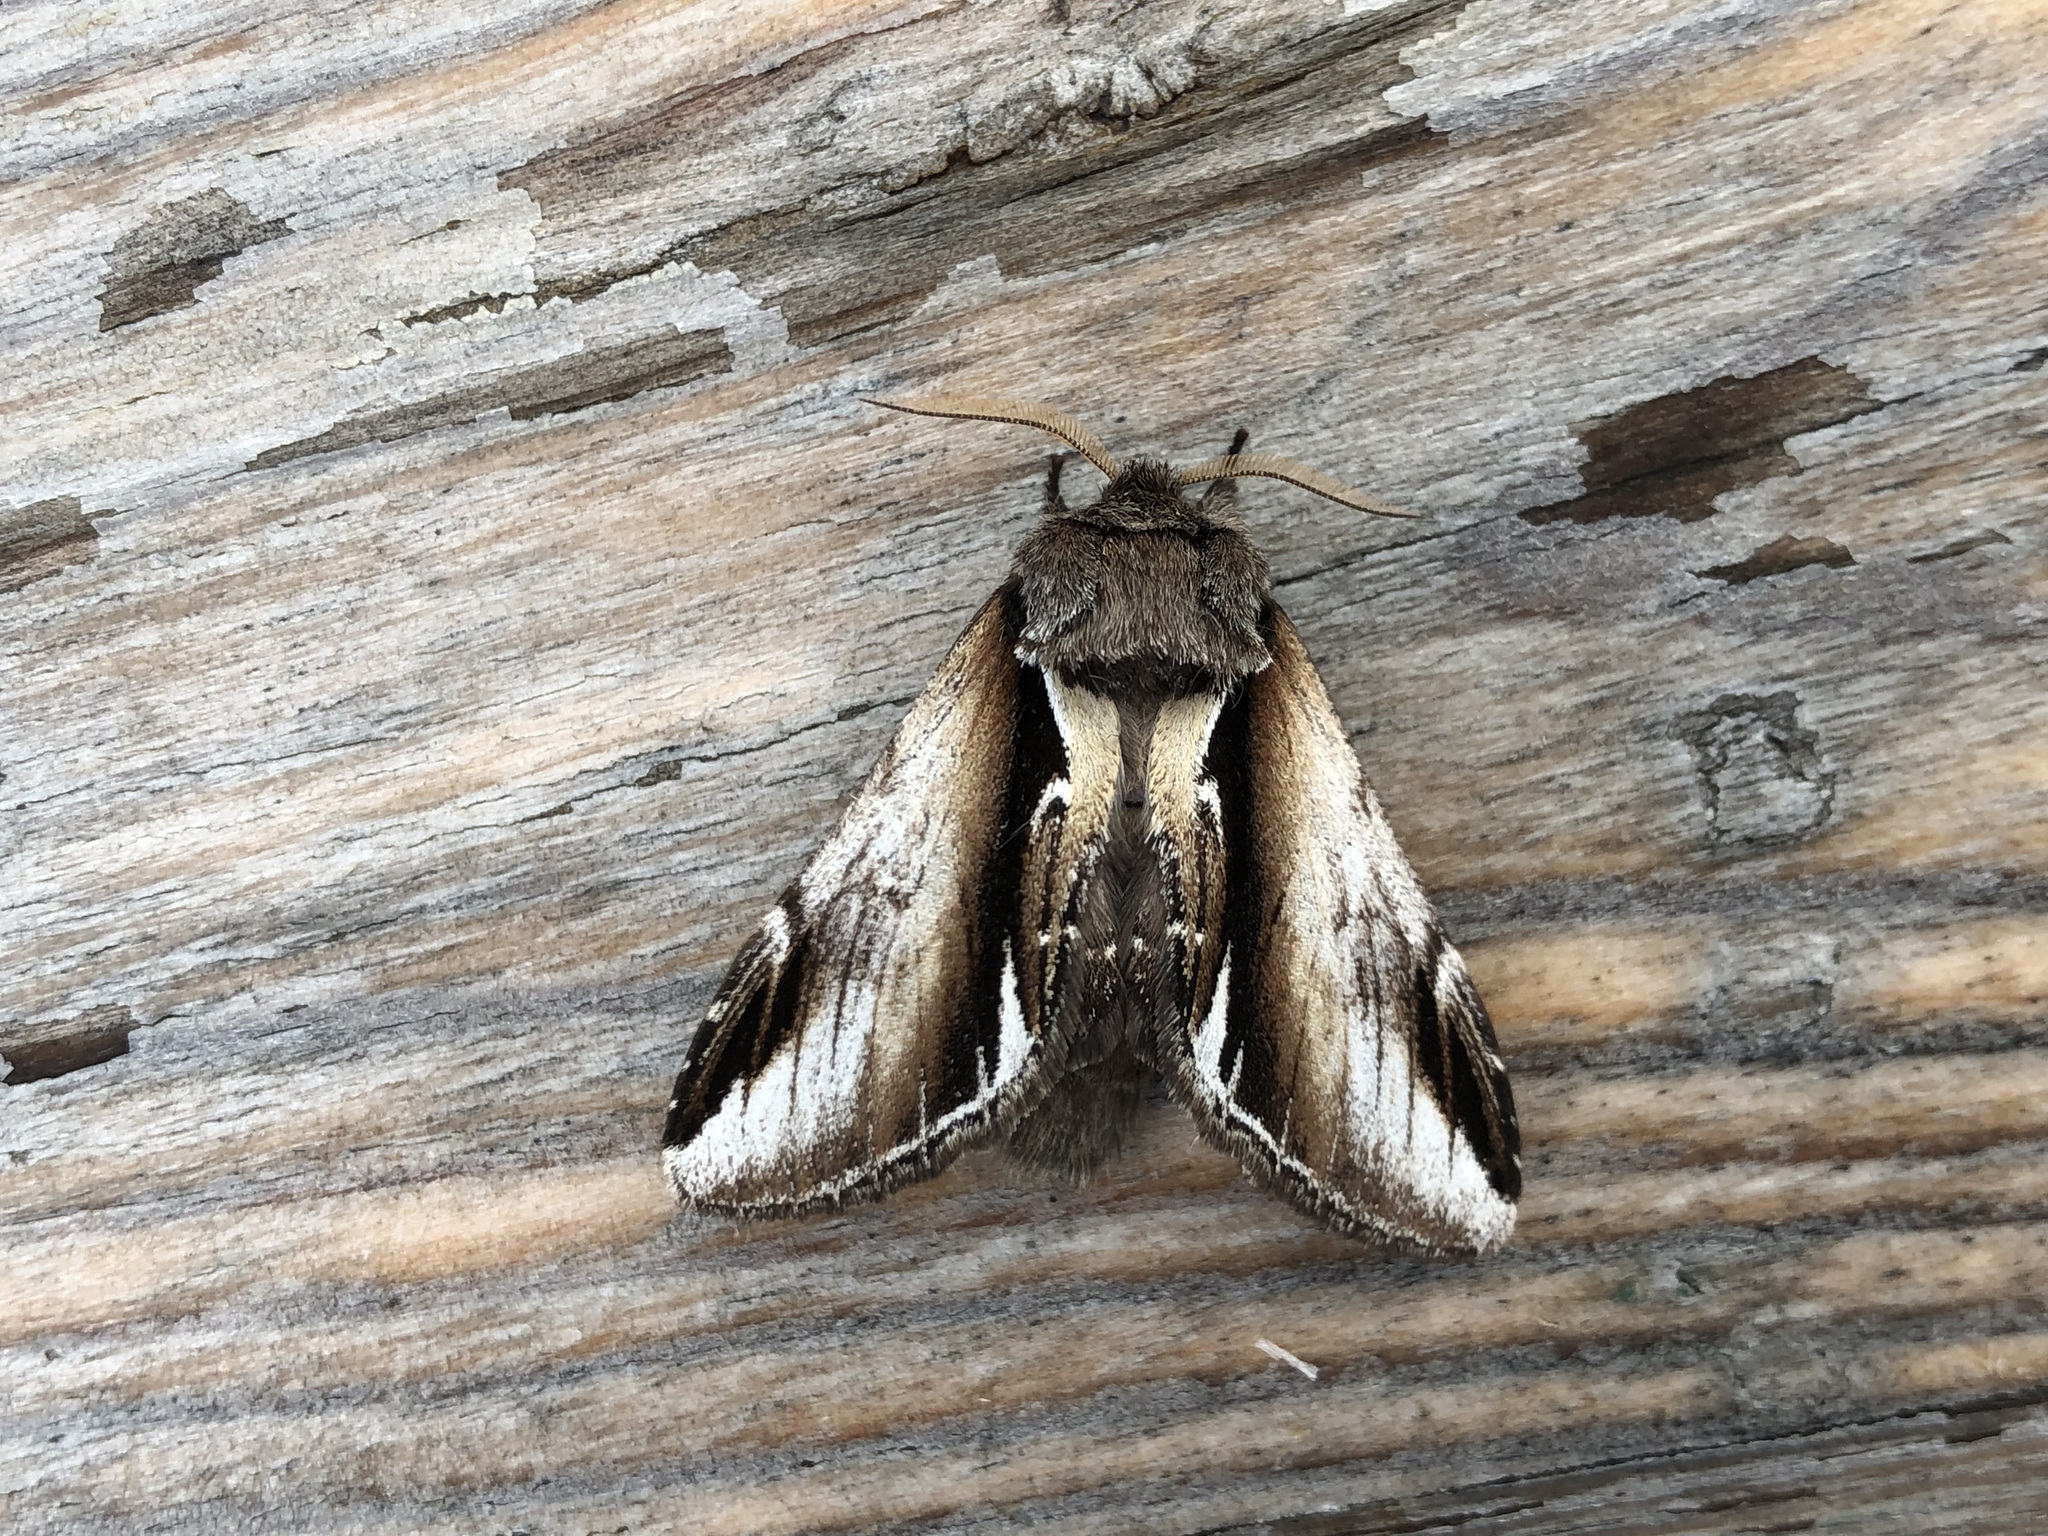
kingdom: Animalia
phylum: Arthropoda
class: Insecta
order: Lepidoptera
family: Notodontidae
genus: Pheosia
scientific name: Pheosia gnoma
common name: Lesser swallow prominent
